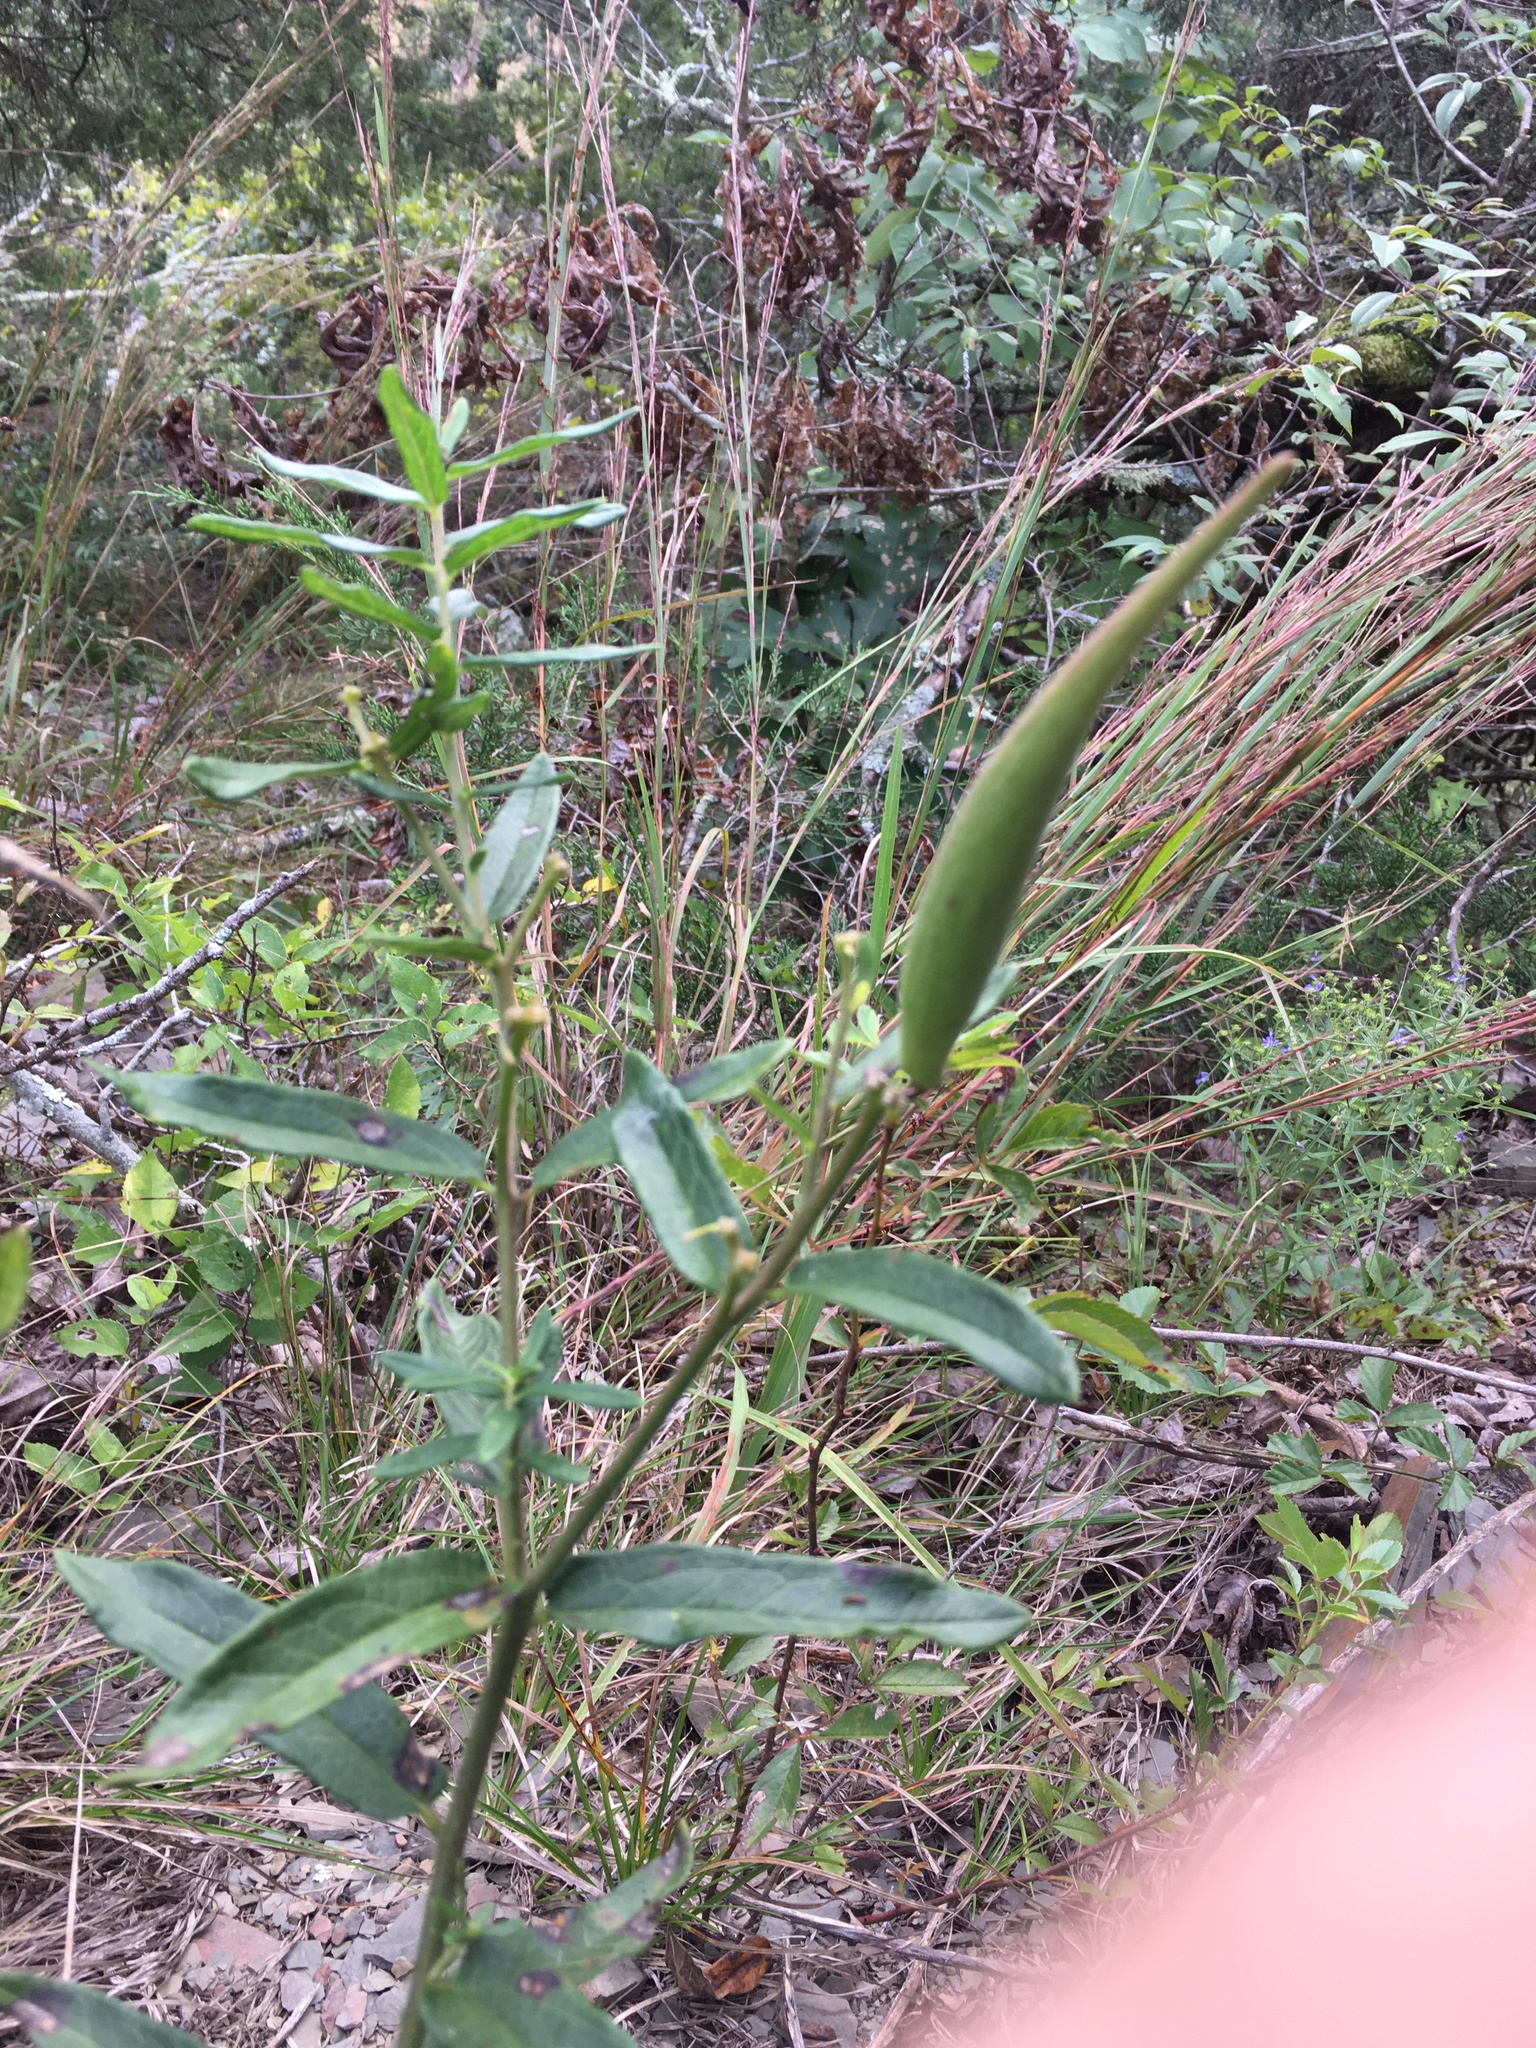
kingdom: Plantae
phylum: Tracheophyta
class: Magnoliopsida
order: Gentianales
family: Apocynaceae
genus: Asclepias
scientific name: Asclepias tuberosa
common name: Butterfly milkweed
